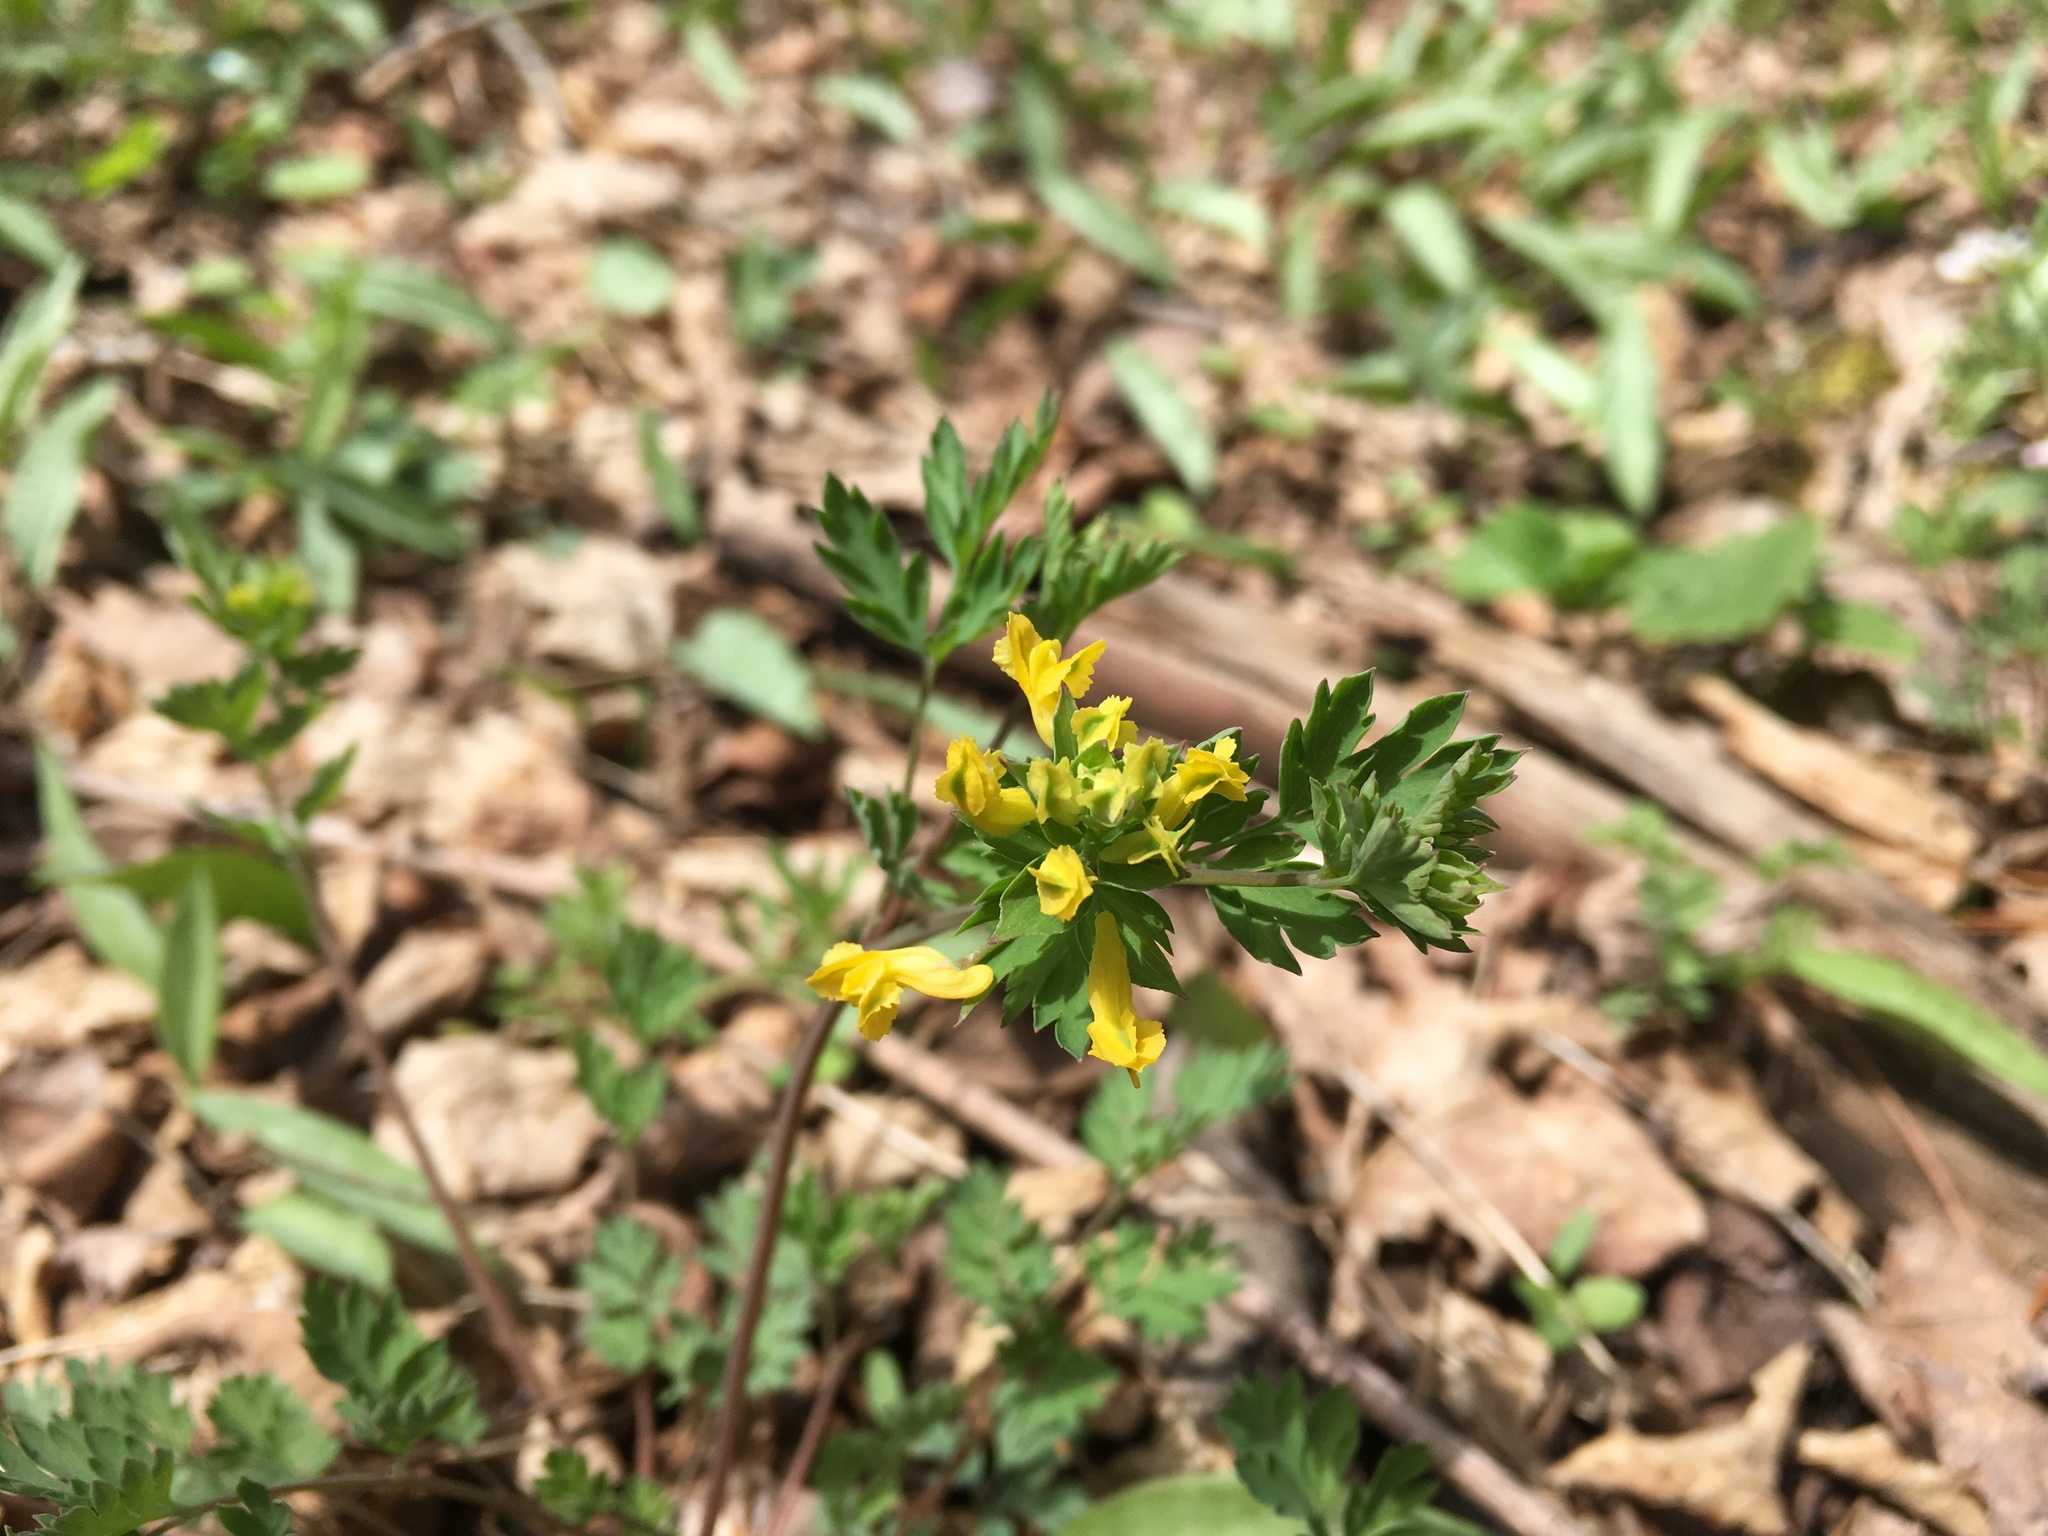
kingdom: Plantae
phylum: Tracheophyta
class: Magnoliopsida
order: Ranunculales
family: Papaveraceae
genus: Corydalis
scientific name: Corydalis flavula
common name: Yellow corydalis
